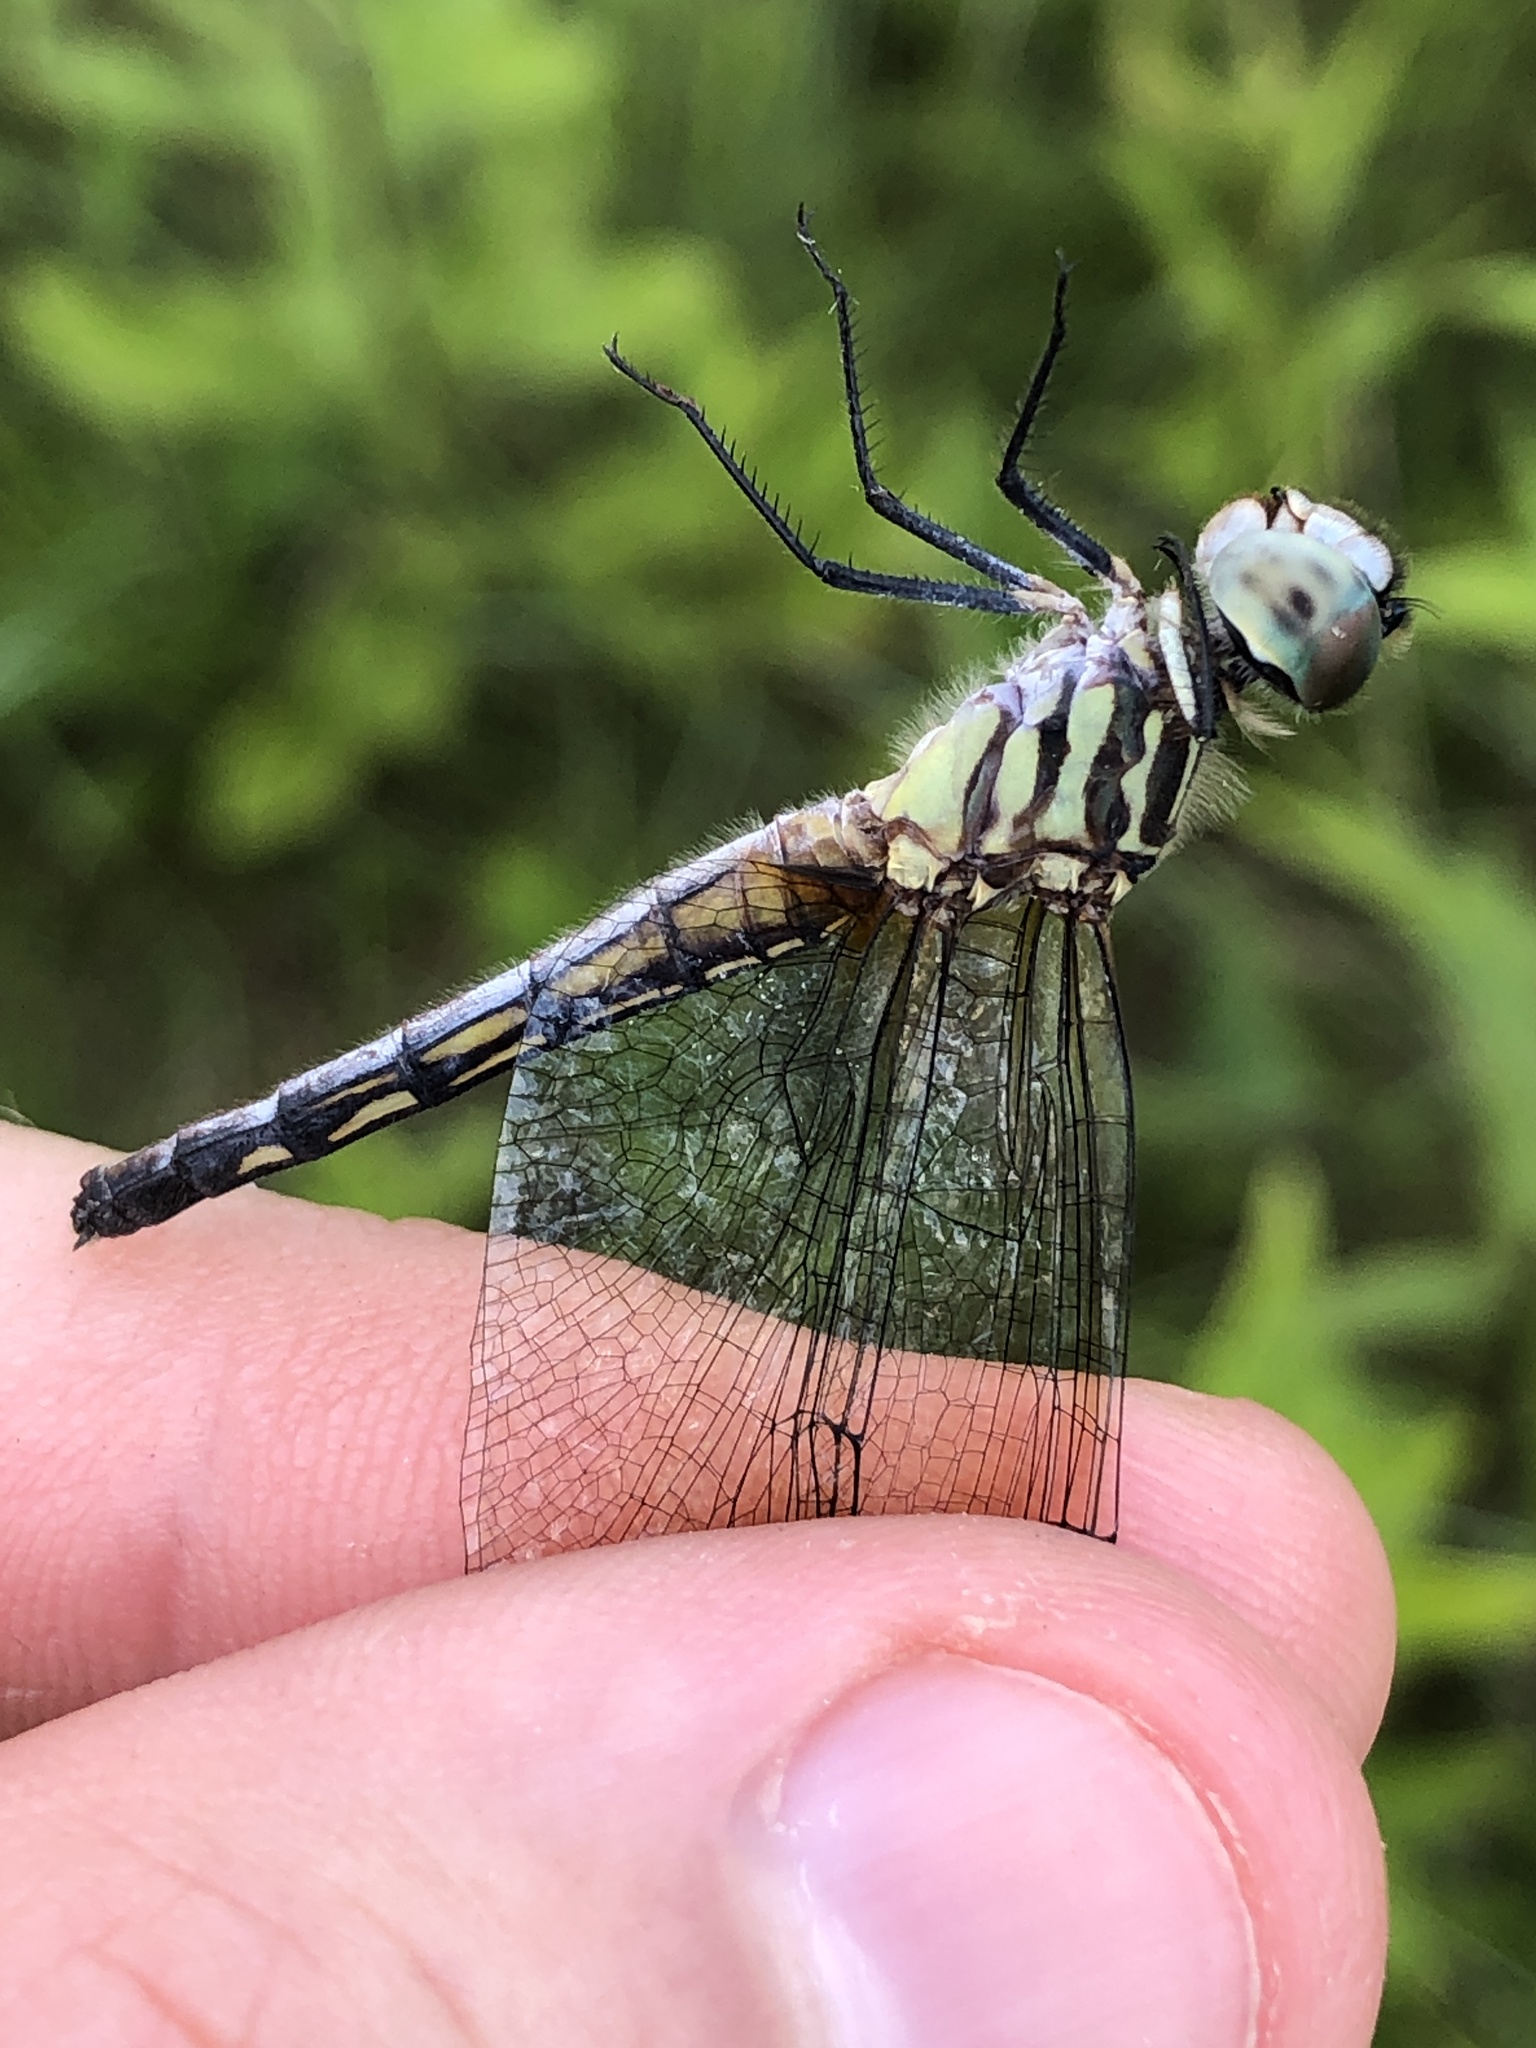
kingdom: Animalia
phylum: Arthropoda
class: Insecta
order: Odonata
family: Libellulidae
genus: Pachydiplax
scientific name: Pachydiplax longipennis
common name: Blue dasher
